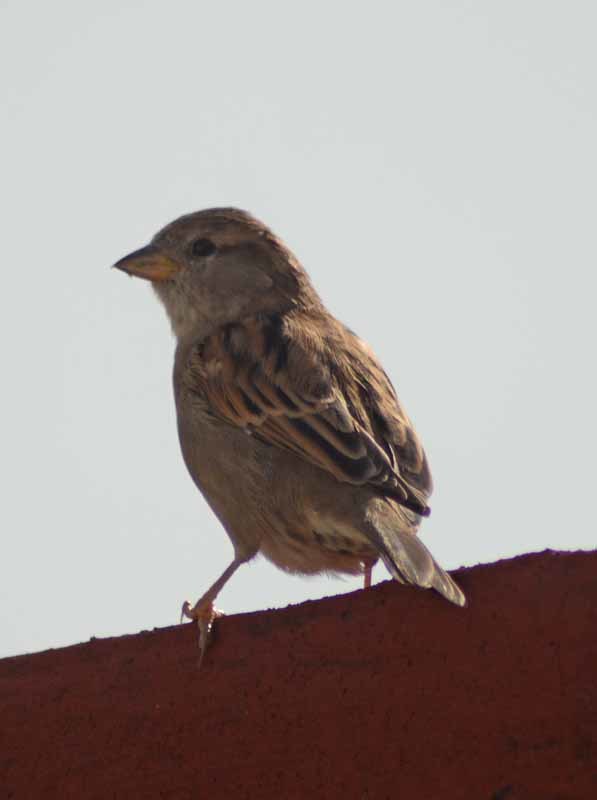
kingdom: Animalia
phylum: Chordata
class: Aves
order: Passeriformes
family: Passeridae
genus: Passer
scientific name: Passer domesticus
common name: House sparrow
